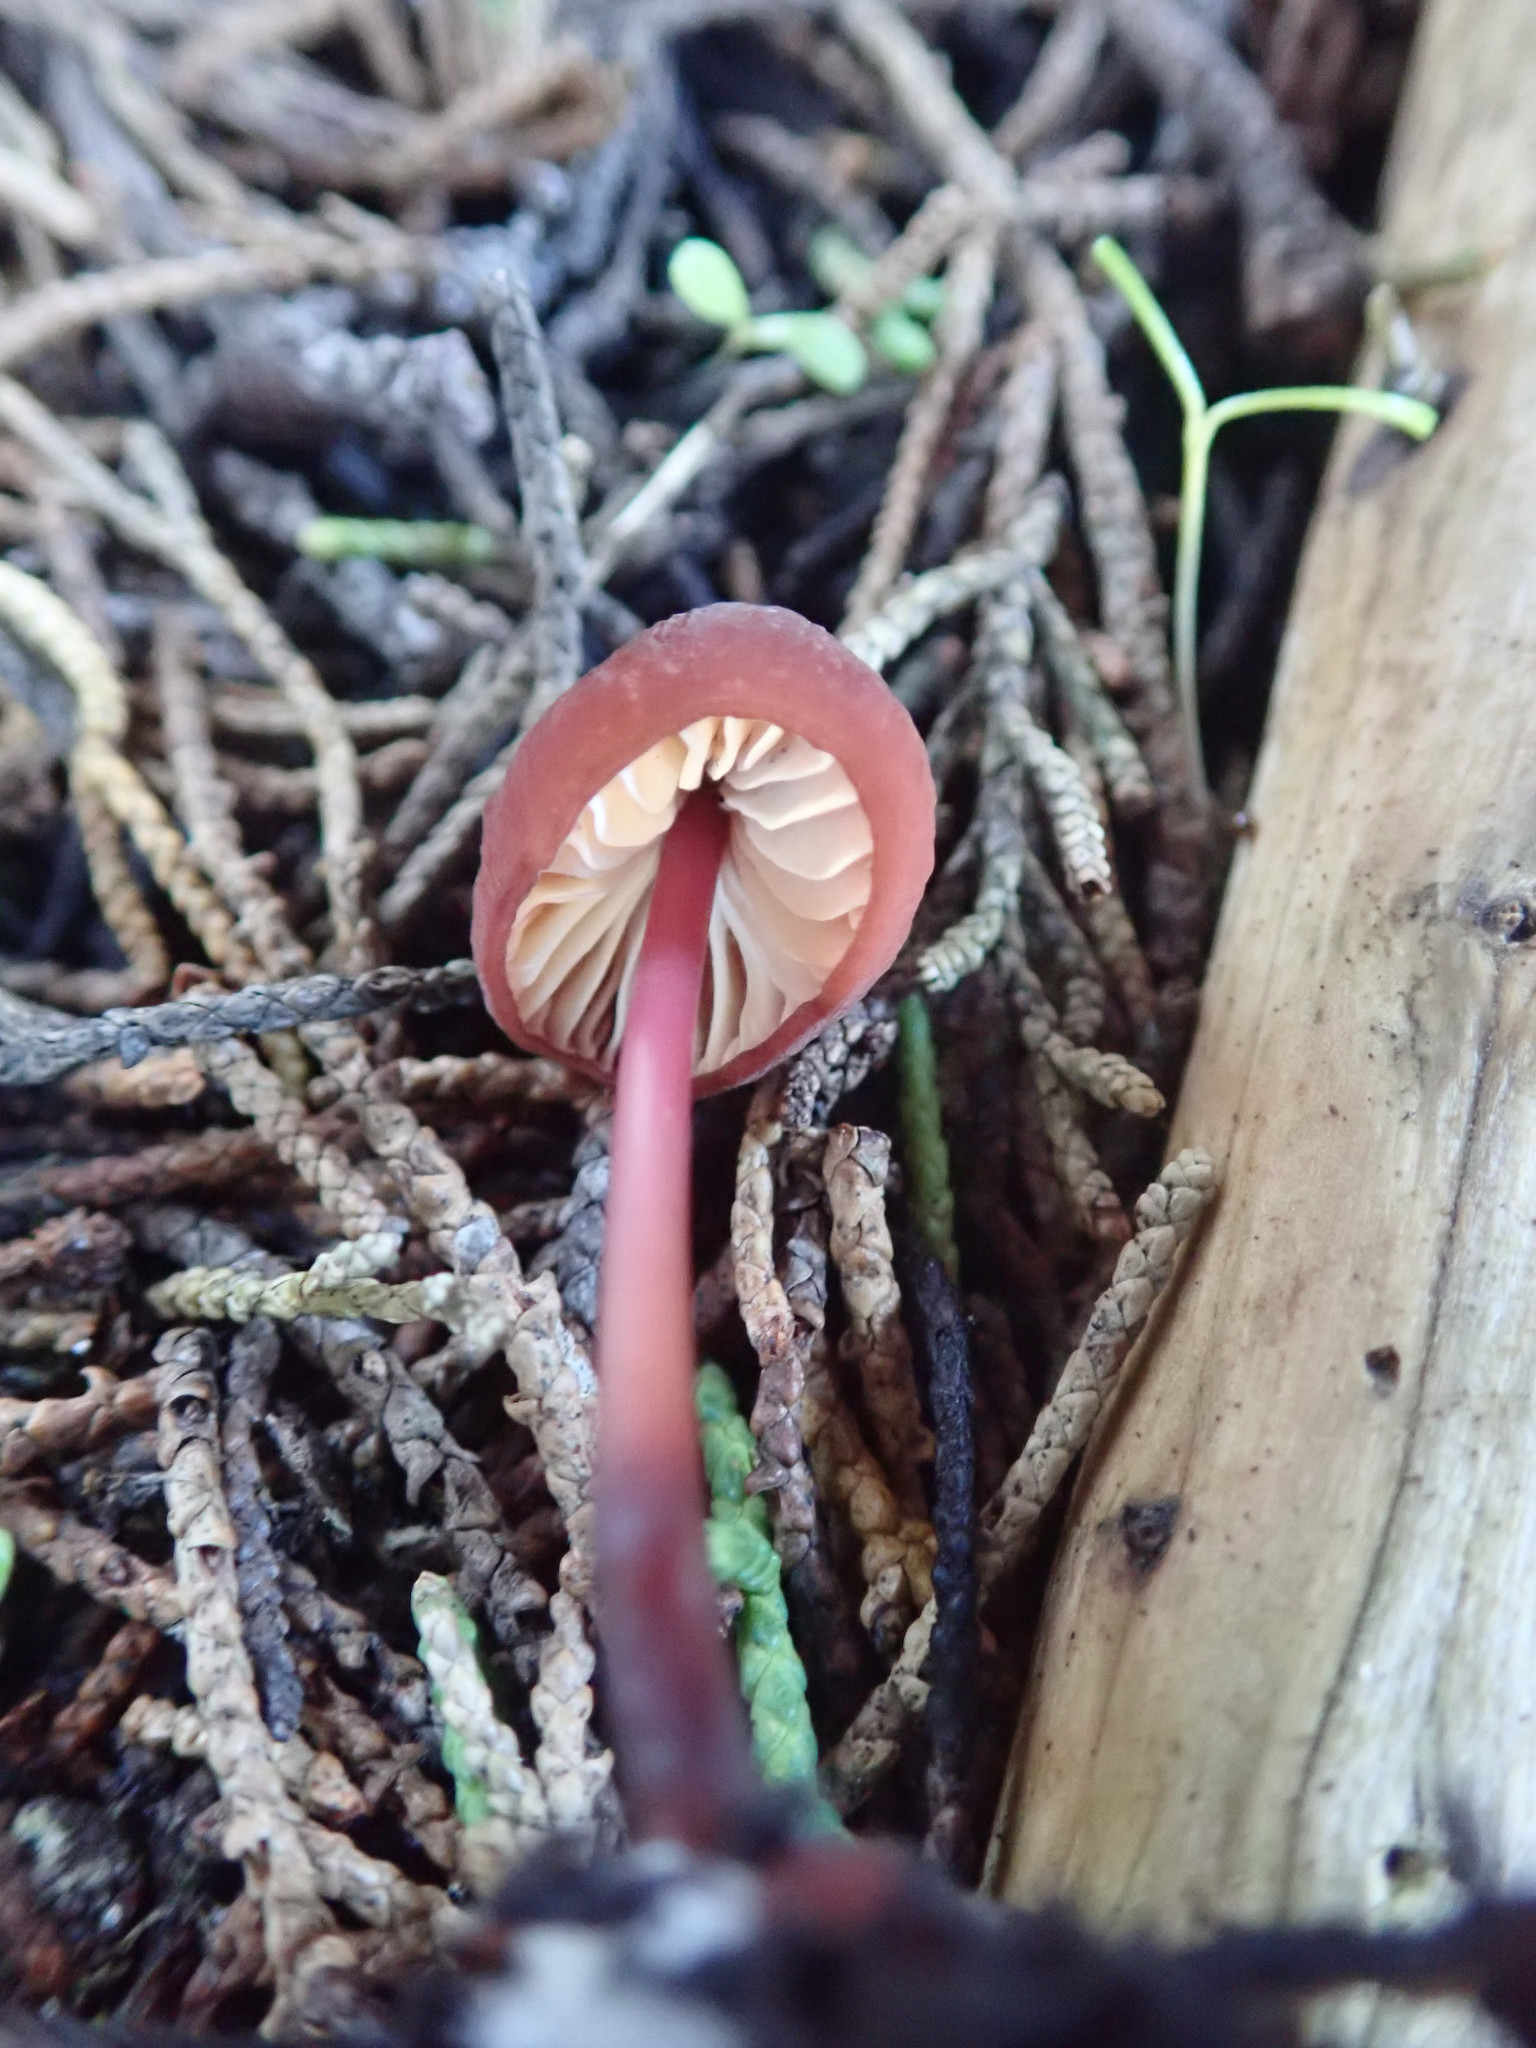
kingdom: Fungi
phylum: Basidiomycota
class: Agaricomycetes
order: Agaricales
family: Marasmiaceae
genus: Marasmius
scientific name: Marasmius plicatulus
